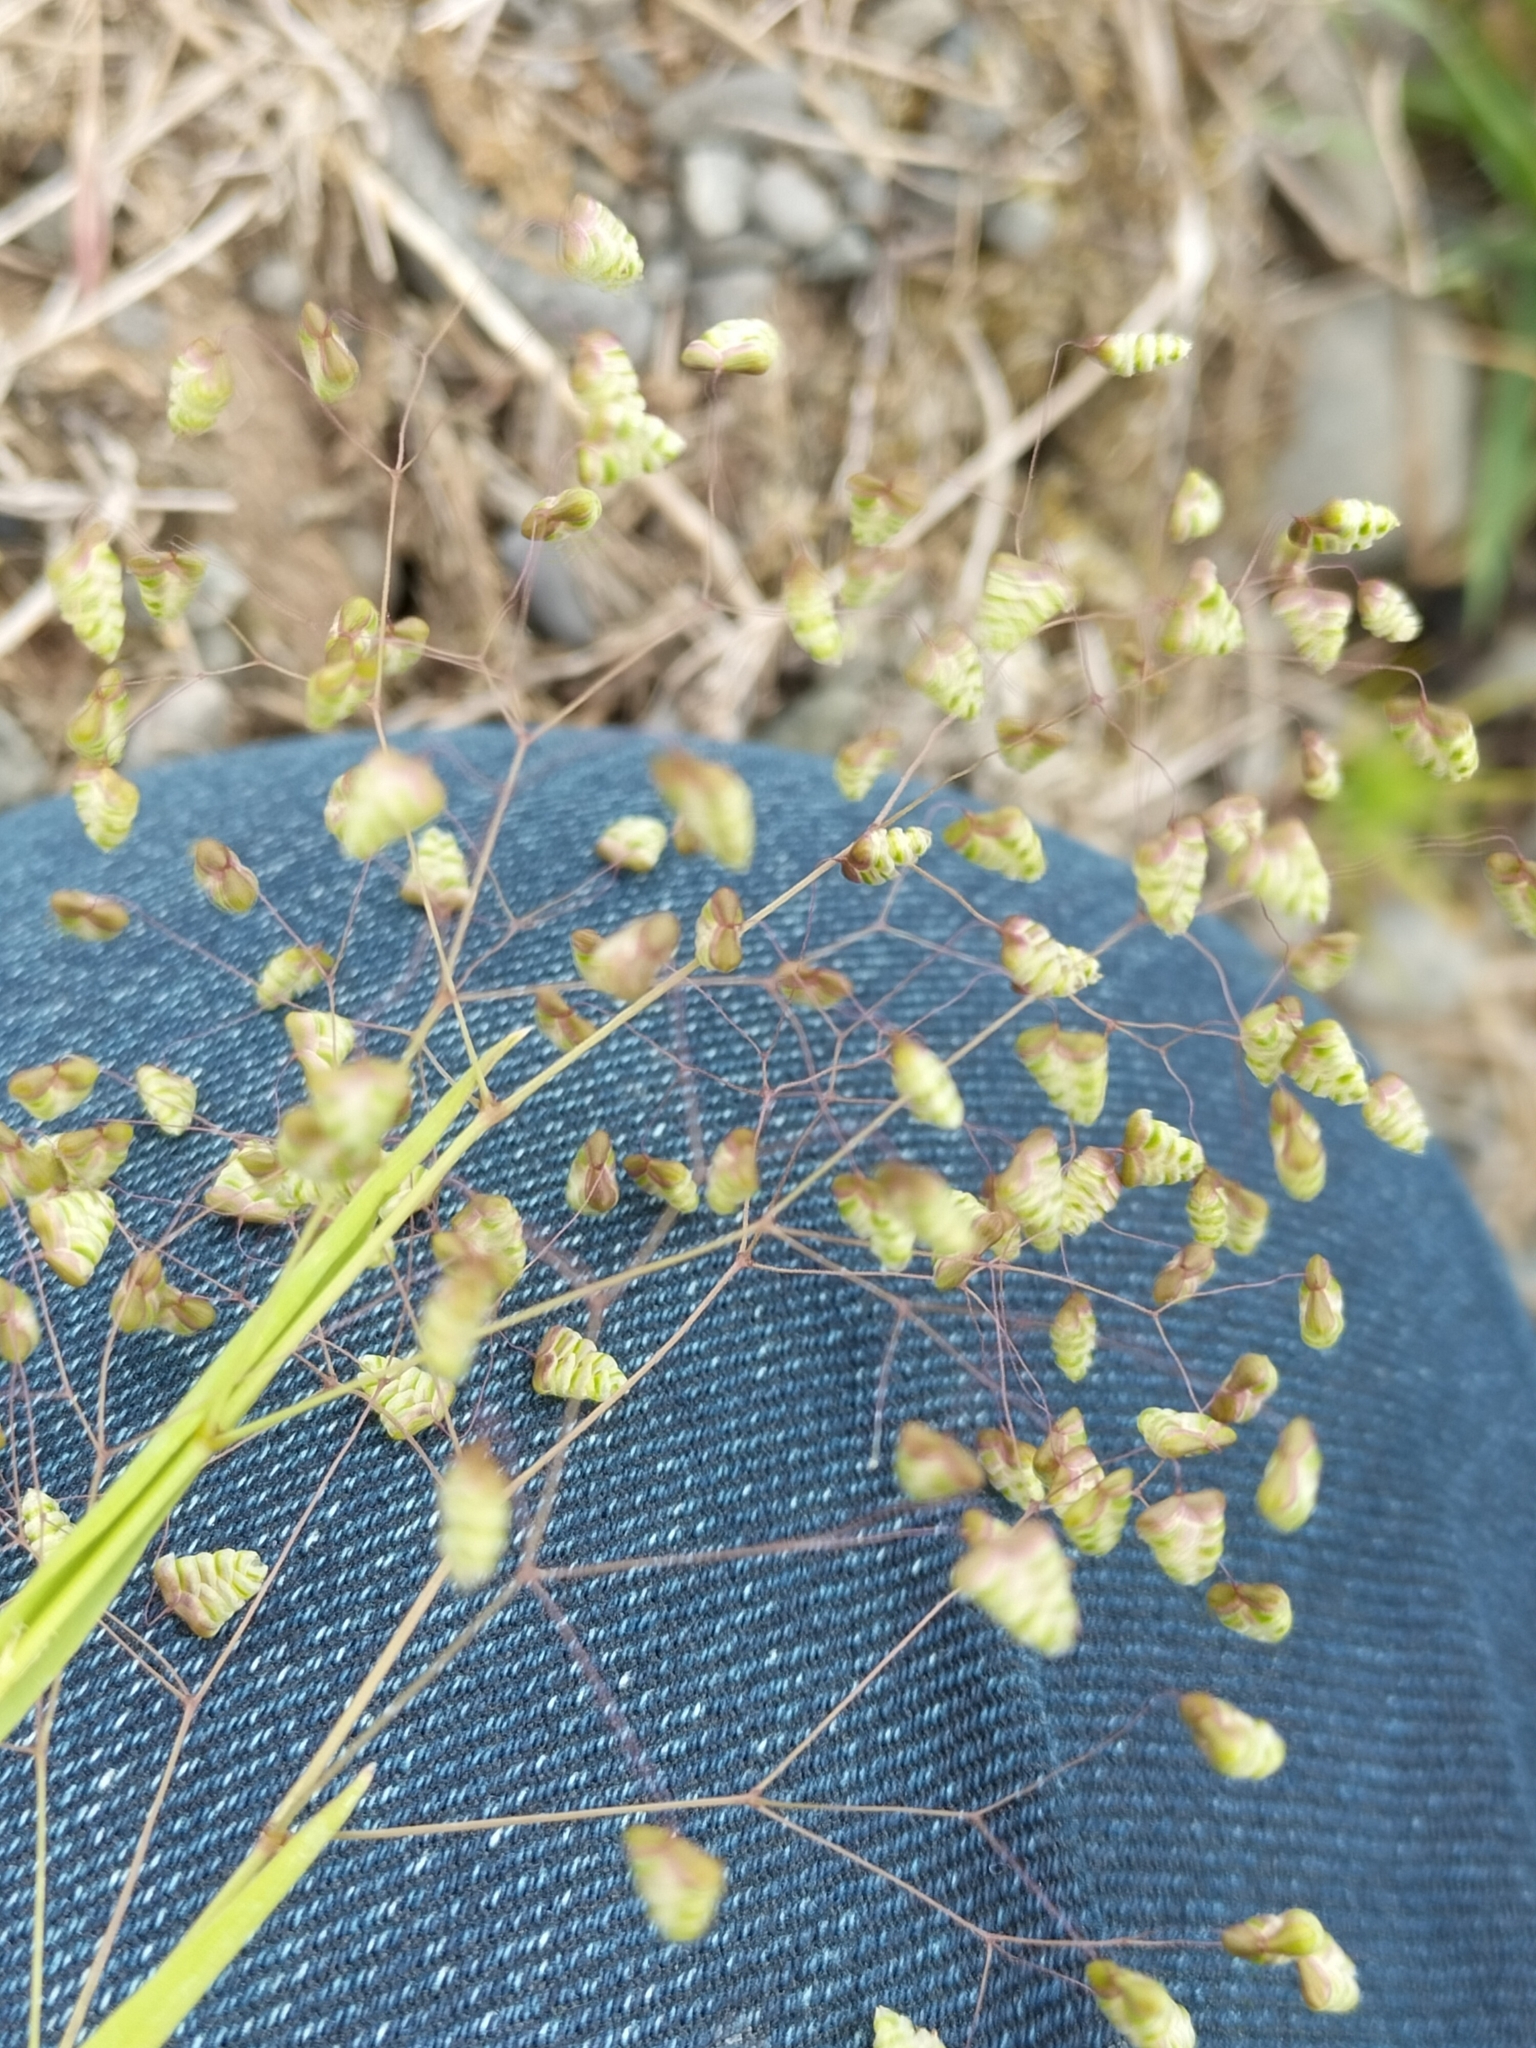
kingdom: Plantae
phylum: Tracheophyta
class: Liliopsida
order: Poales
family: Poaceae
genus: Briza
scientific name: Briza minor
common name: Lesser quaking-grass
